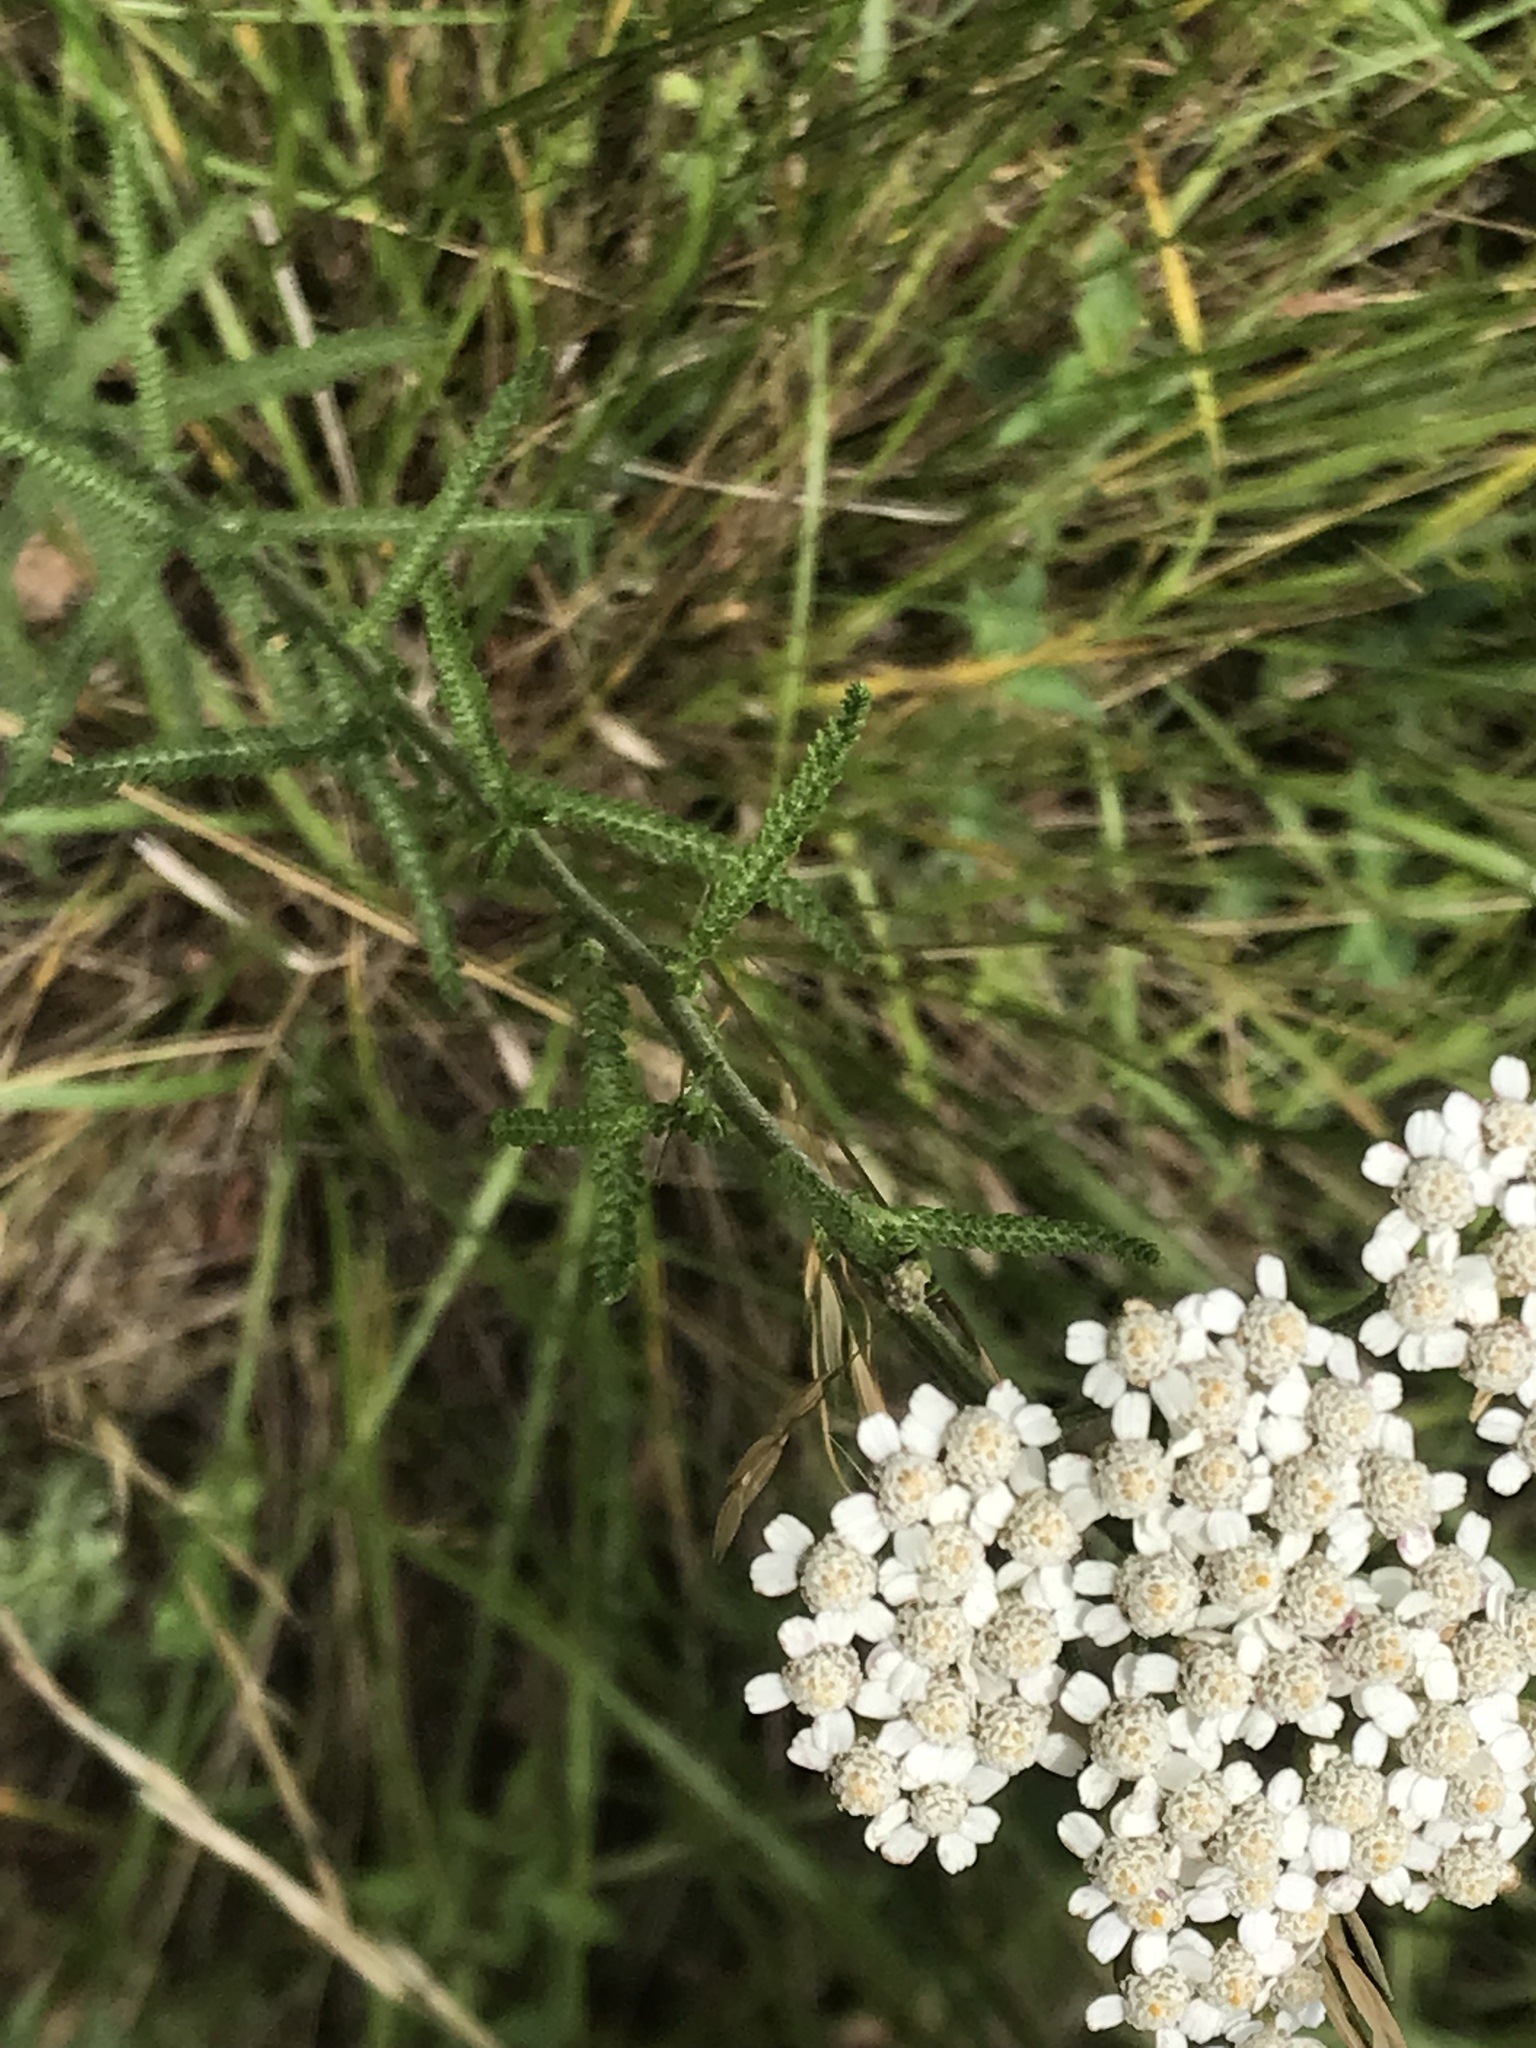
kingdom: Plantae
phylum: Tracheophyta
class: Magnoliopsida
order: Asterales
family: Asteraceae
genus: Achillea
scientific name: Achillea millefolium
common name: Yarrow
